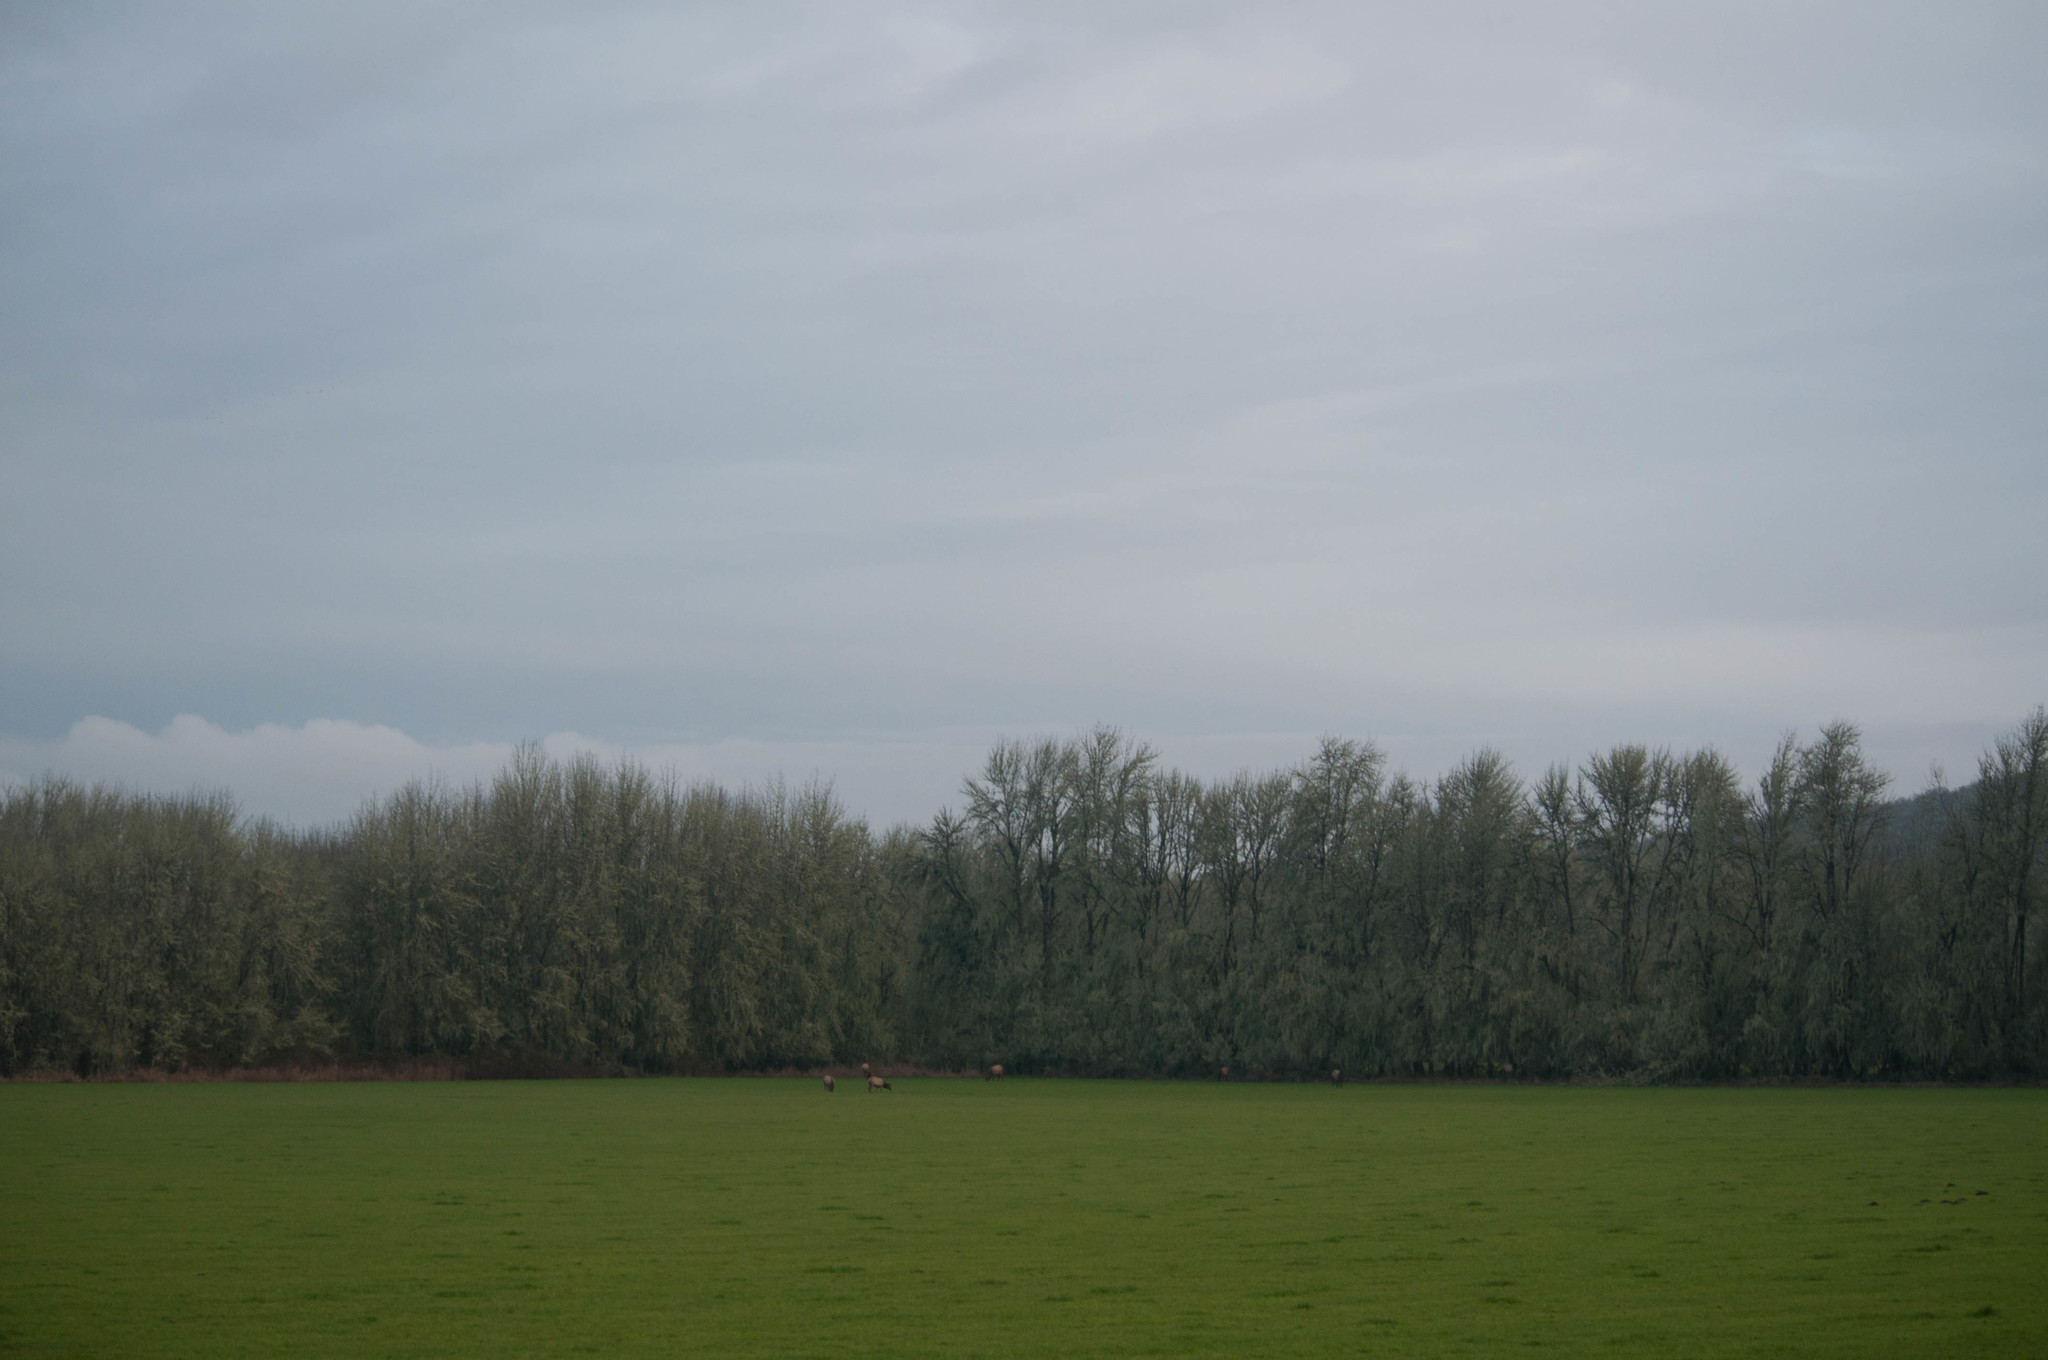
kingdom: Animalia
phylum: Chordata
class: Mammalia
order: Artiodactyla
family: Cervidae
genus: Cervus
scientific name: Cervus elaphus
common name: Red deer
